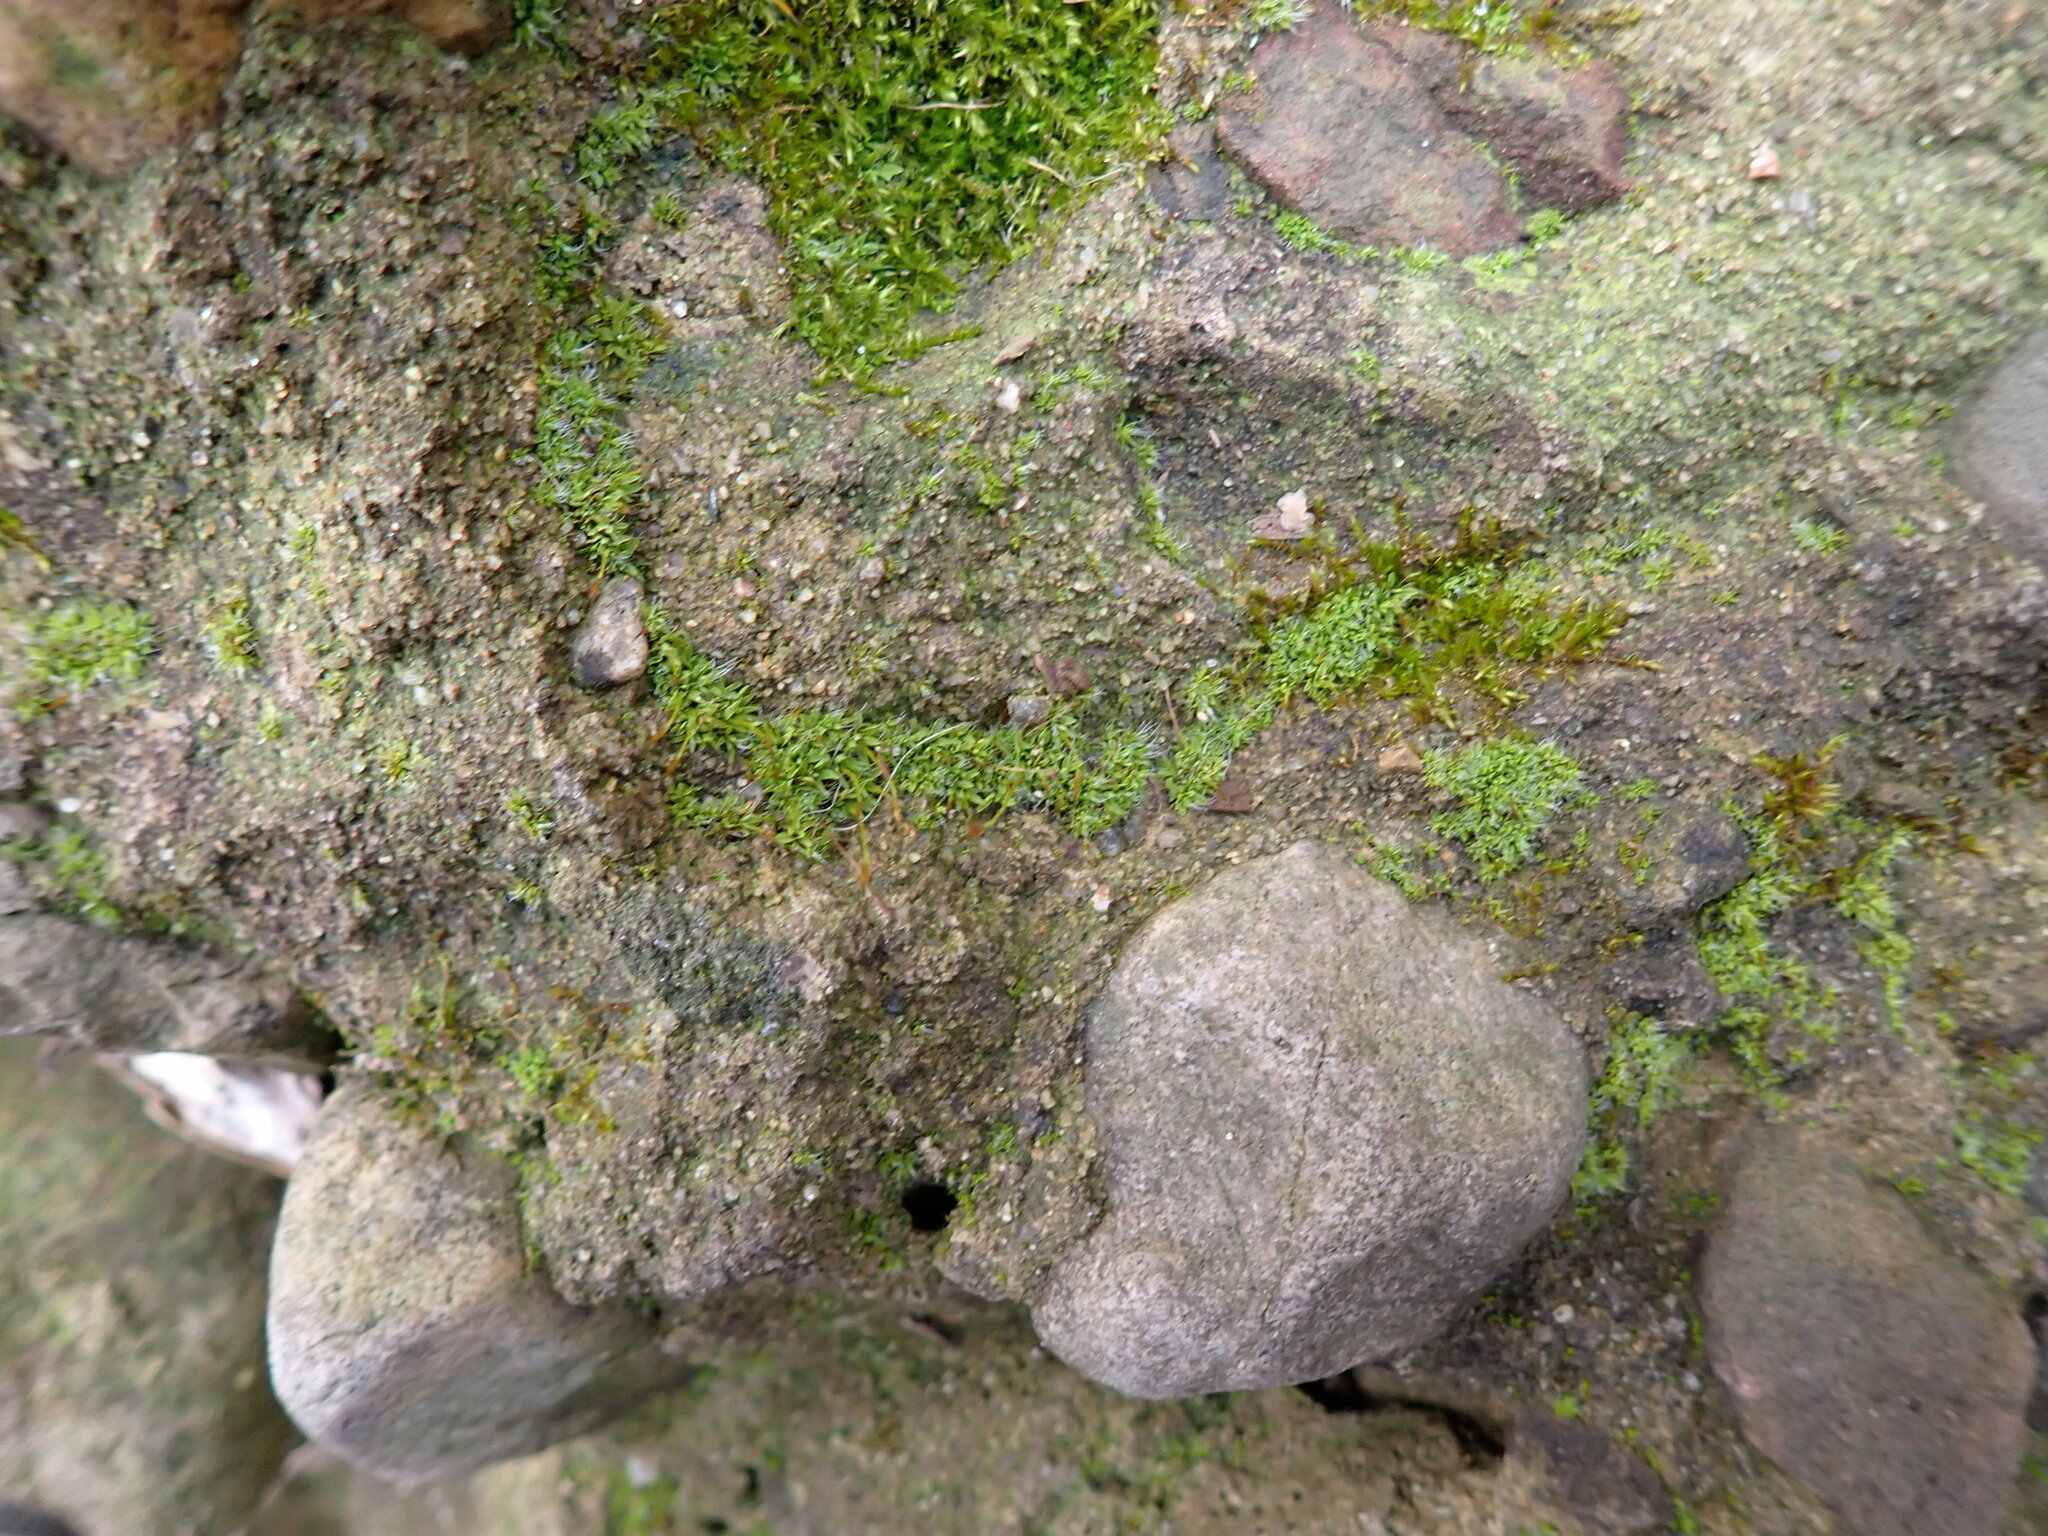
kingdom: Plantae
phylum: Bryophyta
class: Bryopsida
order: Pottiales
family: Pottiaceae
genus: Tortula
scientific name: Tortula muralis
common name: Wall screw-moss
